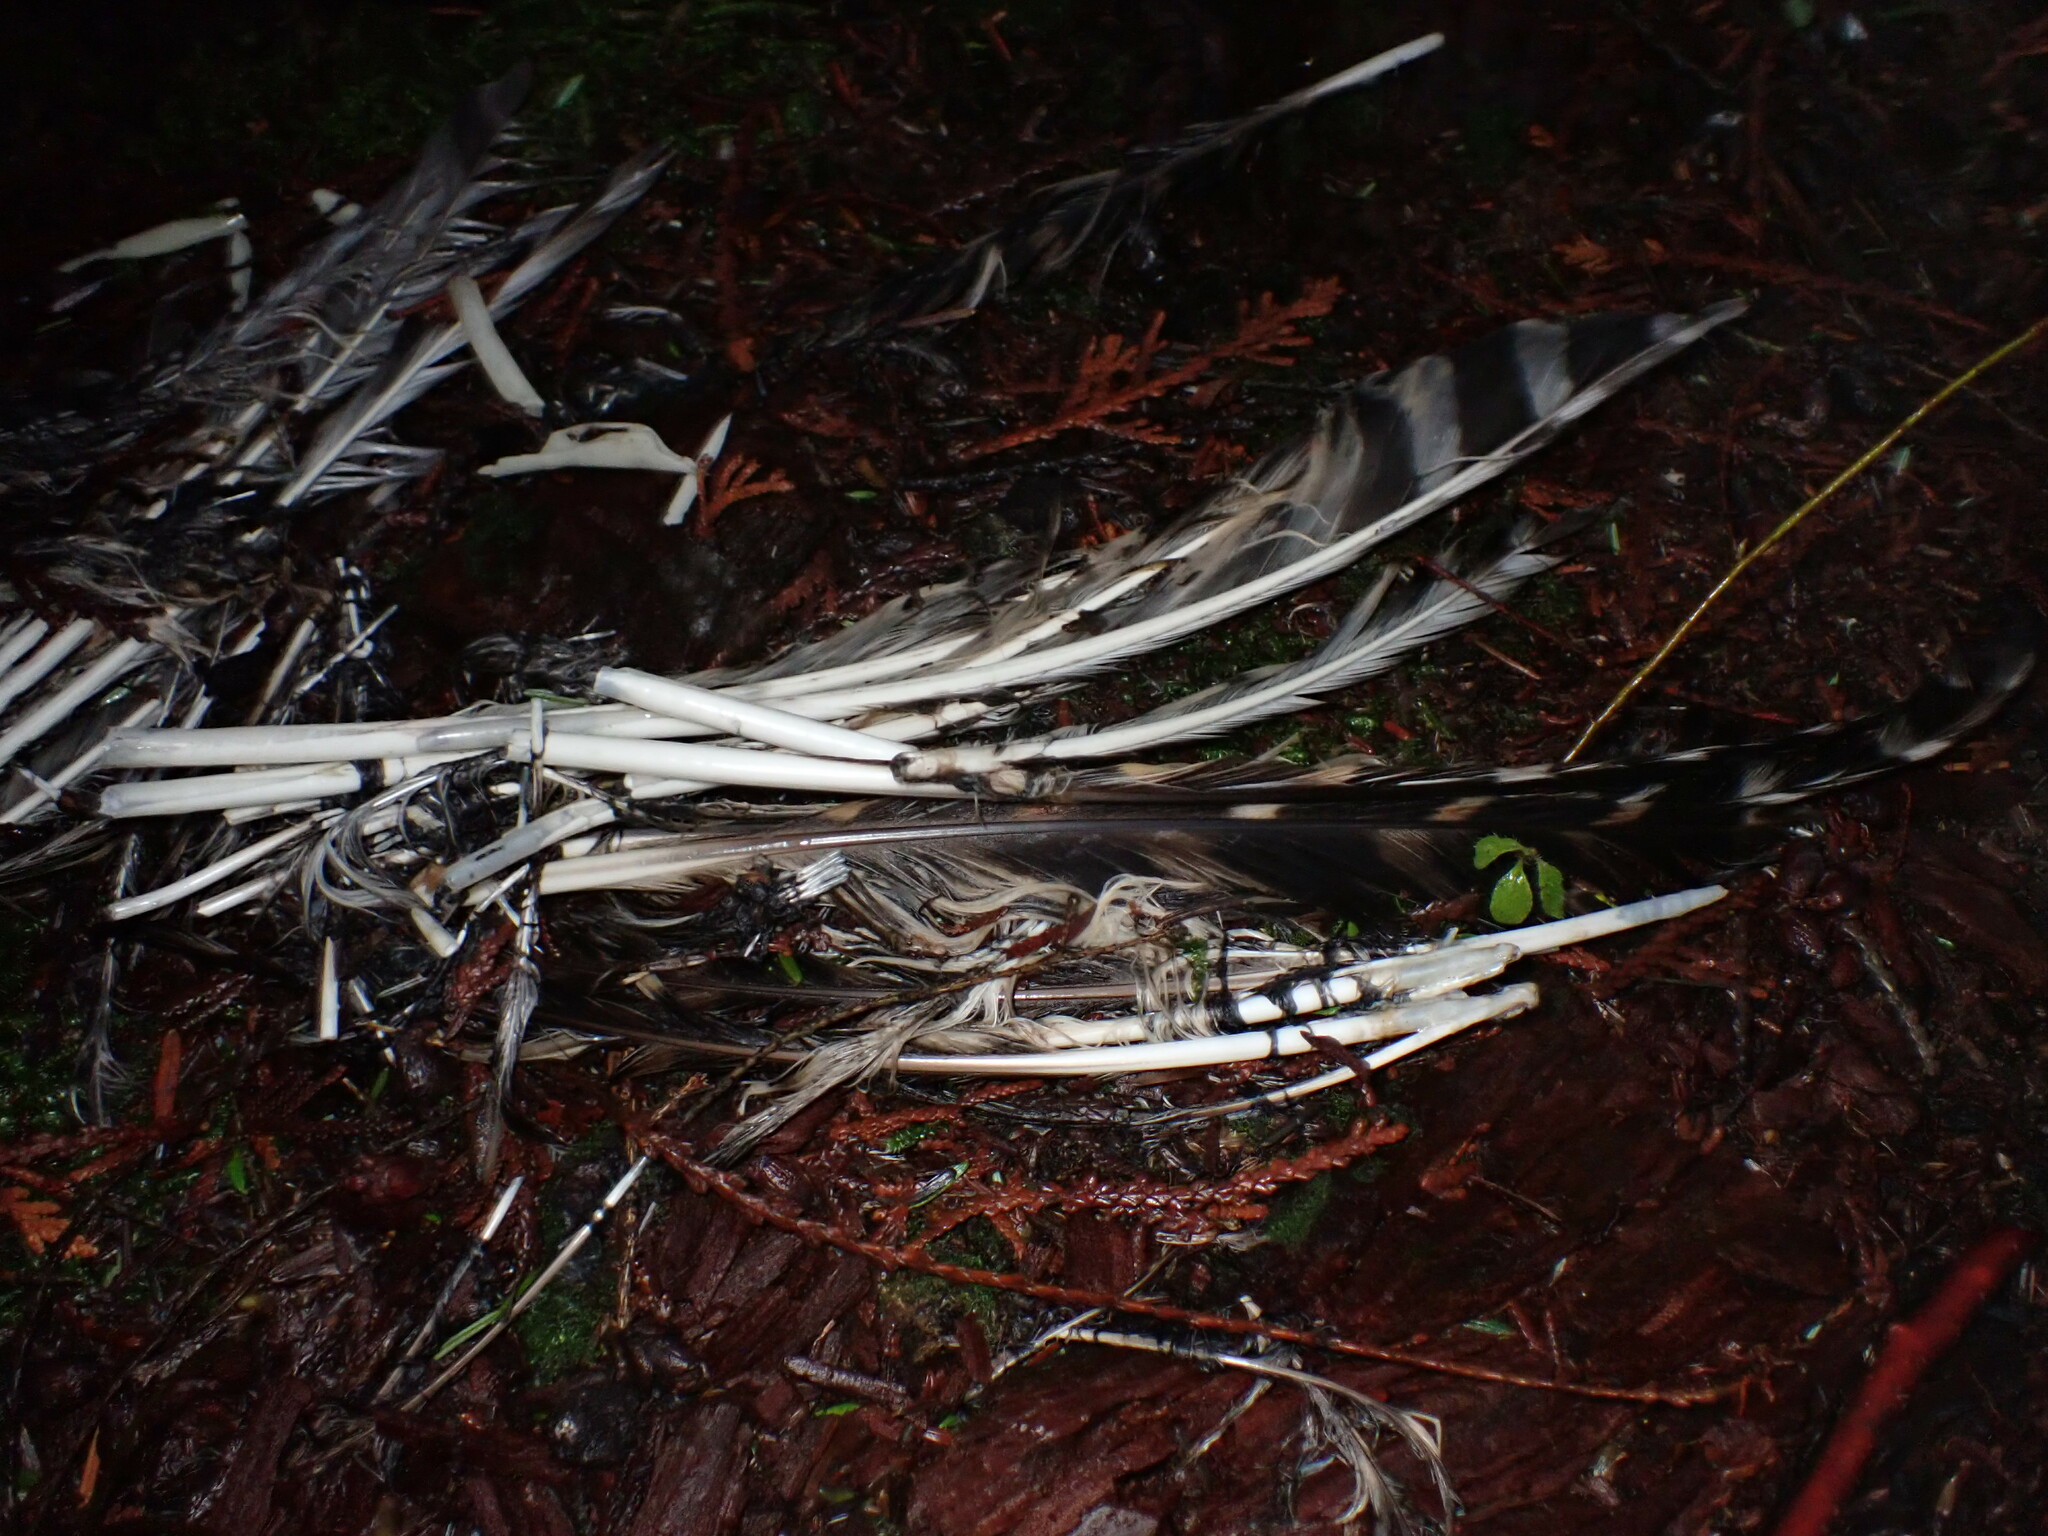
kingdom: Animalia
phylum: Chordata
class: Aves
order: Strigiformes
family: Strigidae
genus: Strix
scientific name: Strix varia
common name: Barred owl
